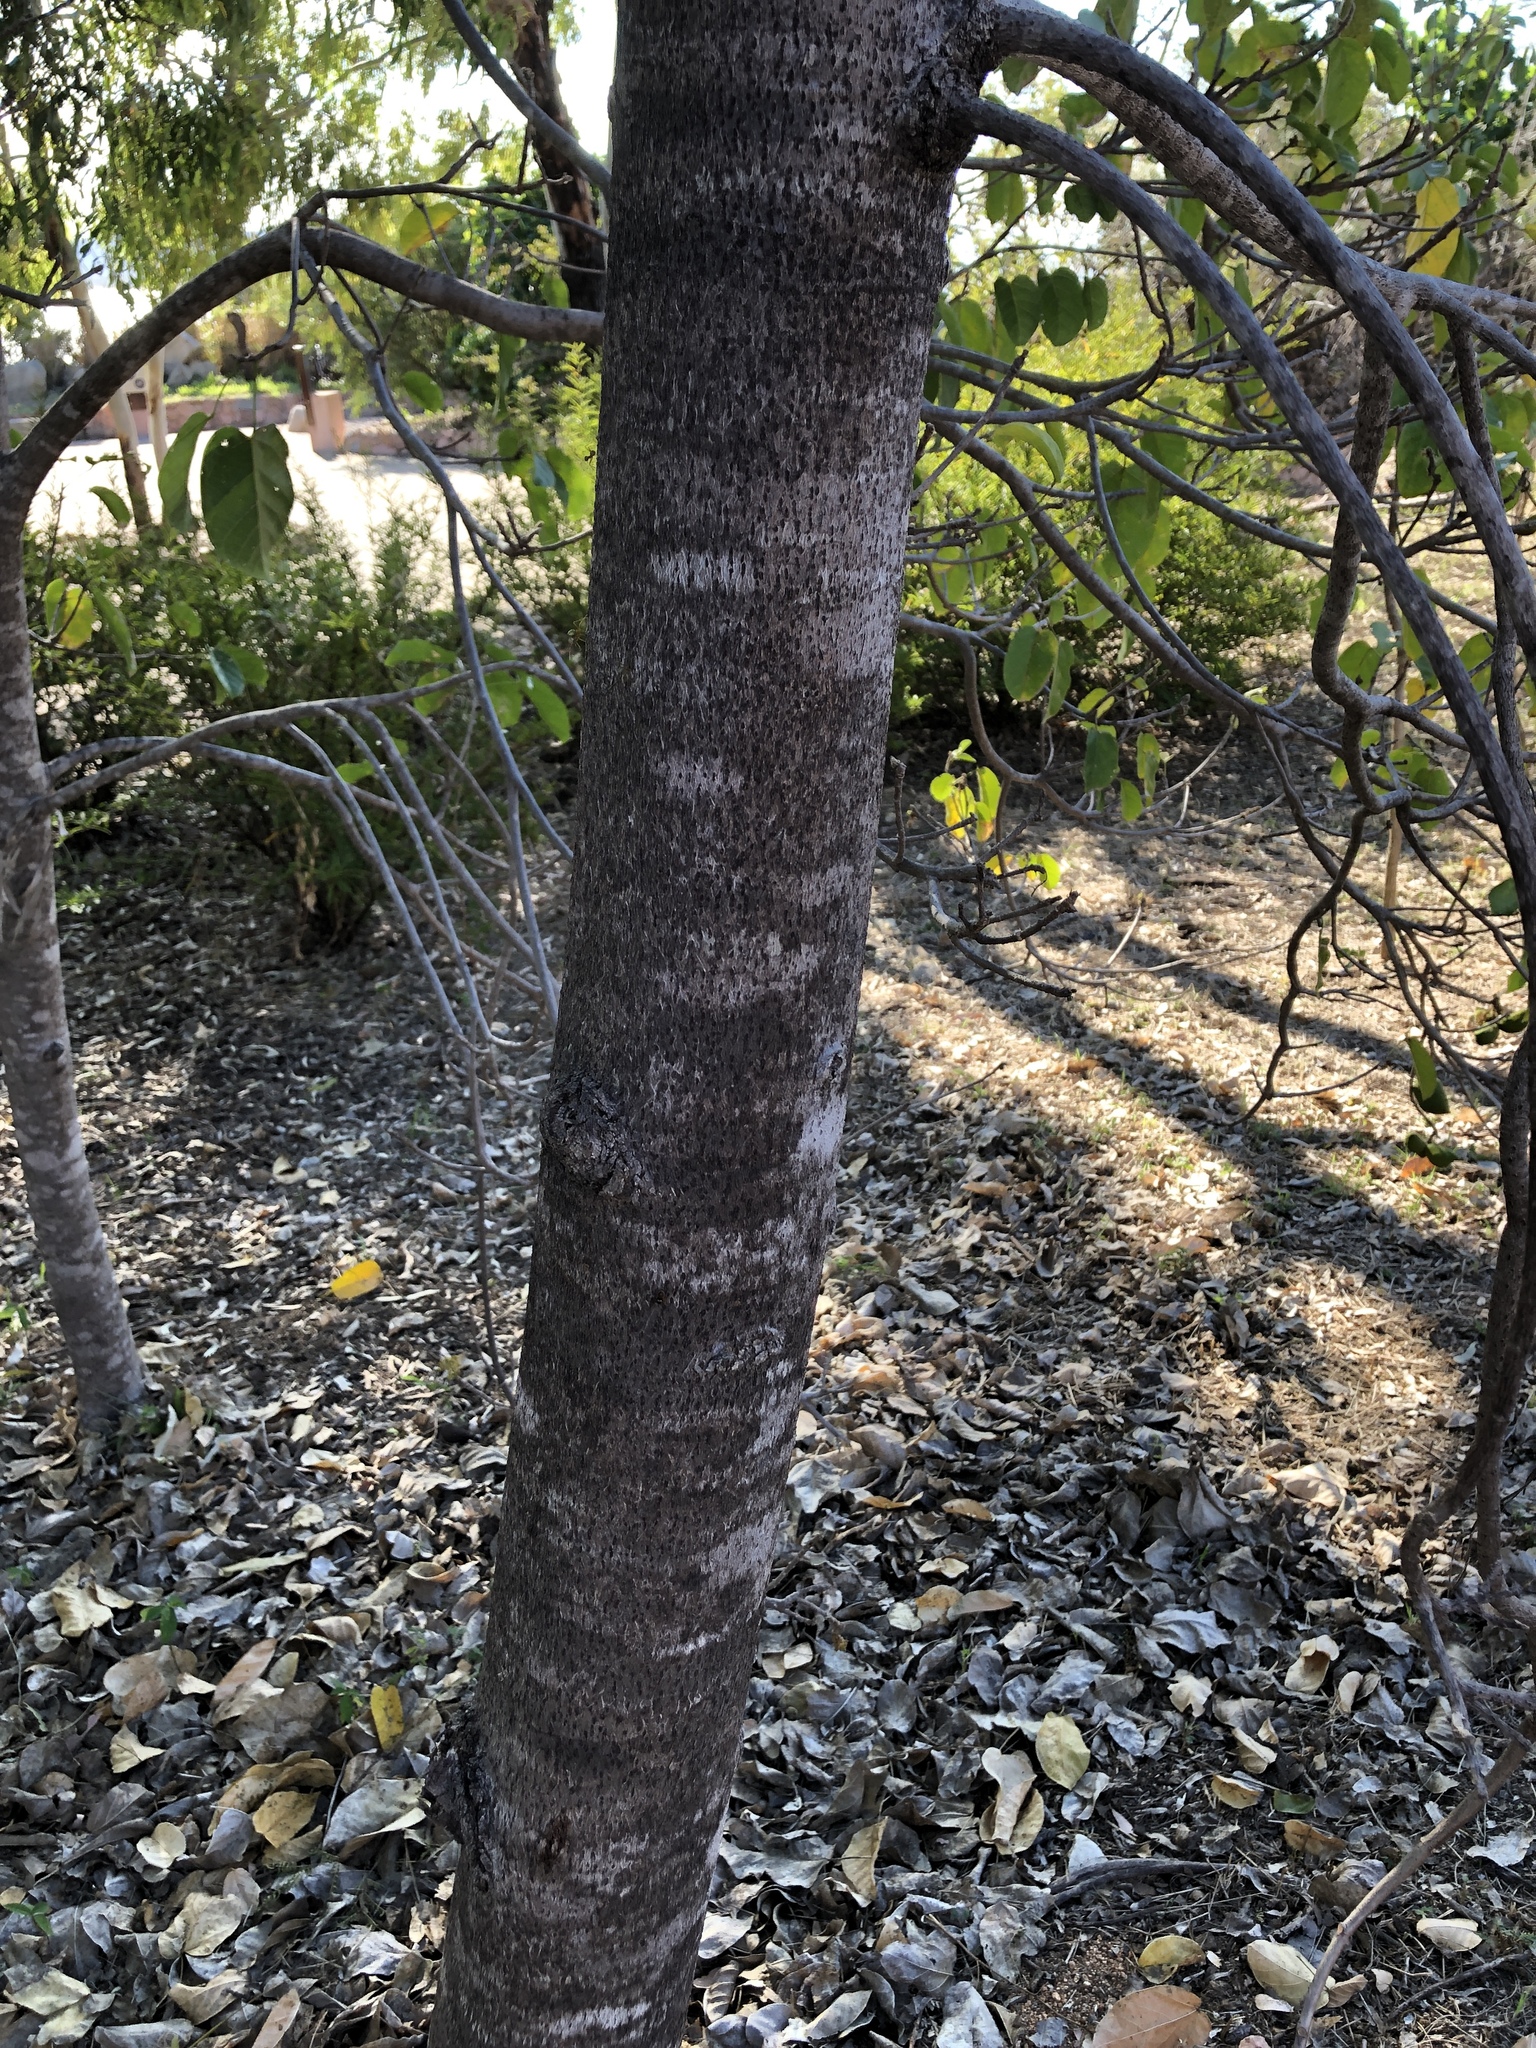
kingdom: Plantae
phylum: Tracheophyta
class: Magnoliopsida
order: Malvales
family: Malvaceae
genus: Sterculia
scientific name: Sterculia quadrifida
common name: Orange-fruit kurrajong
